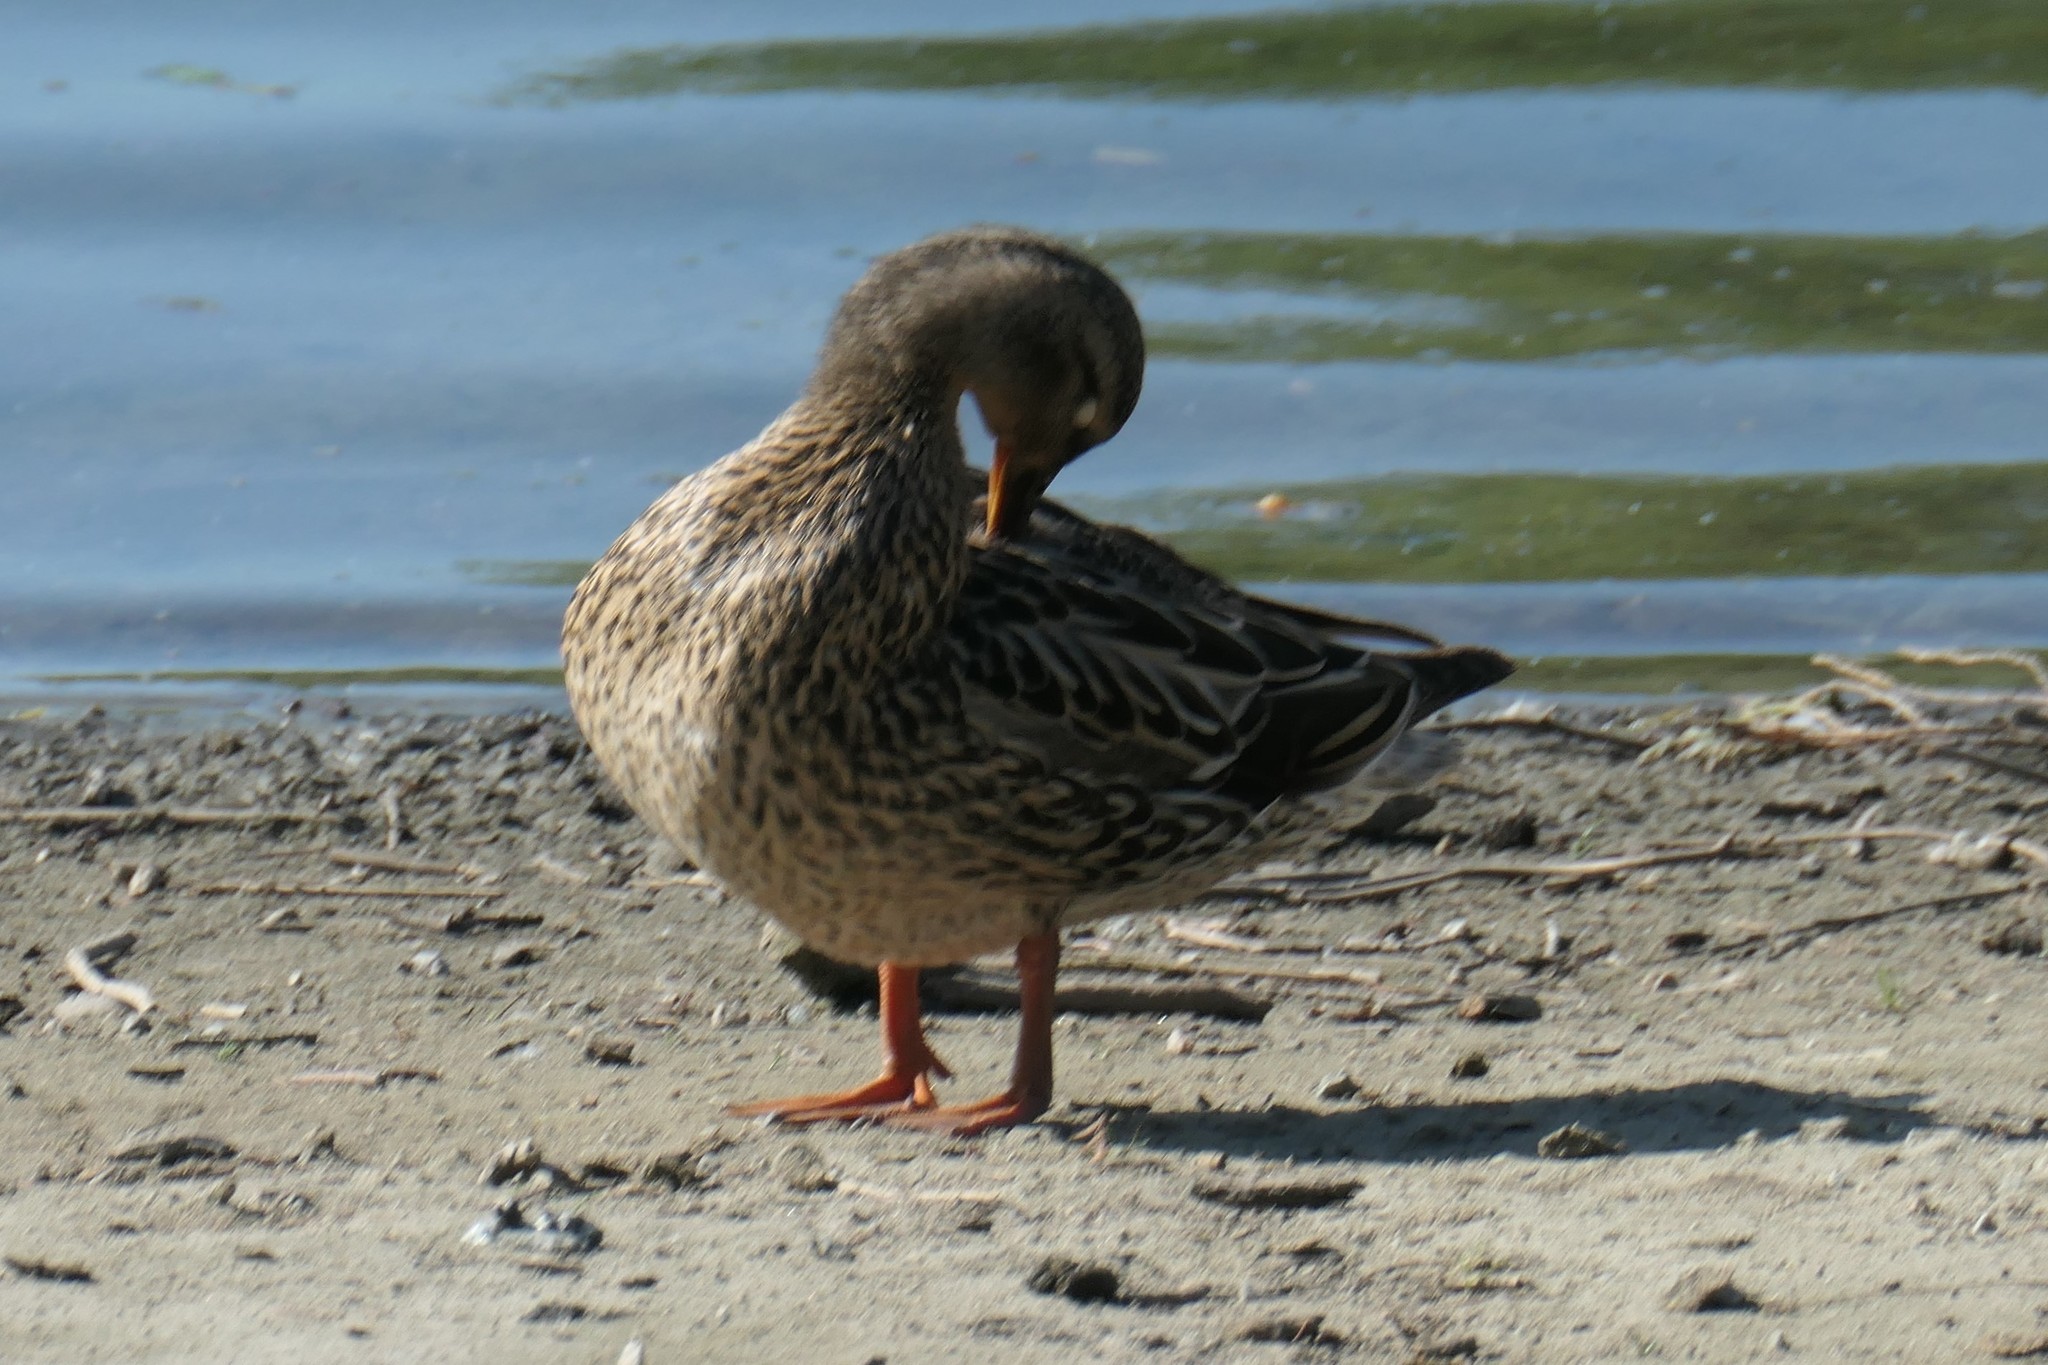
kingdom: Animalia
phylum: Chordata
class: Aves
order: Anseriformes
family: Anatidae
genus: Anas
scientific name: Anas platyrhynchos
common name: Mallard
